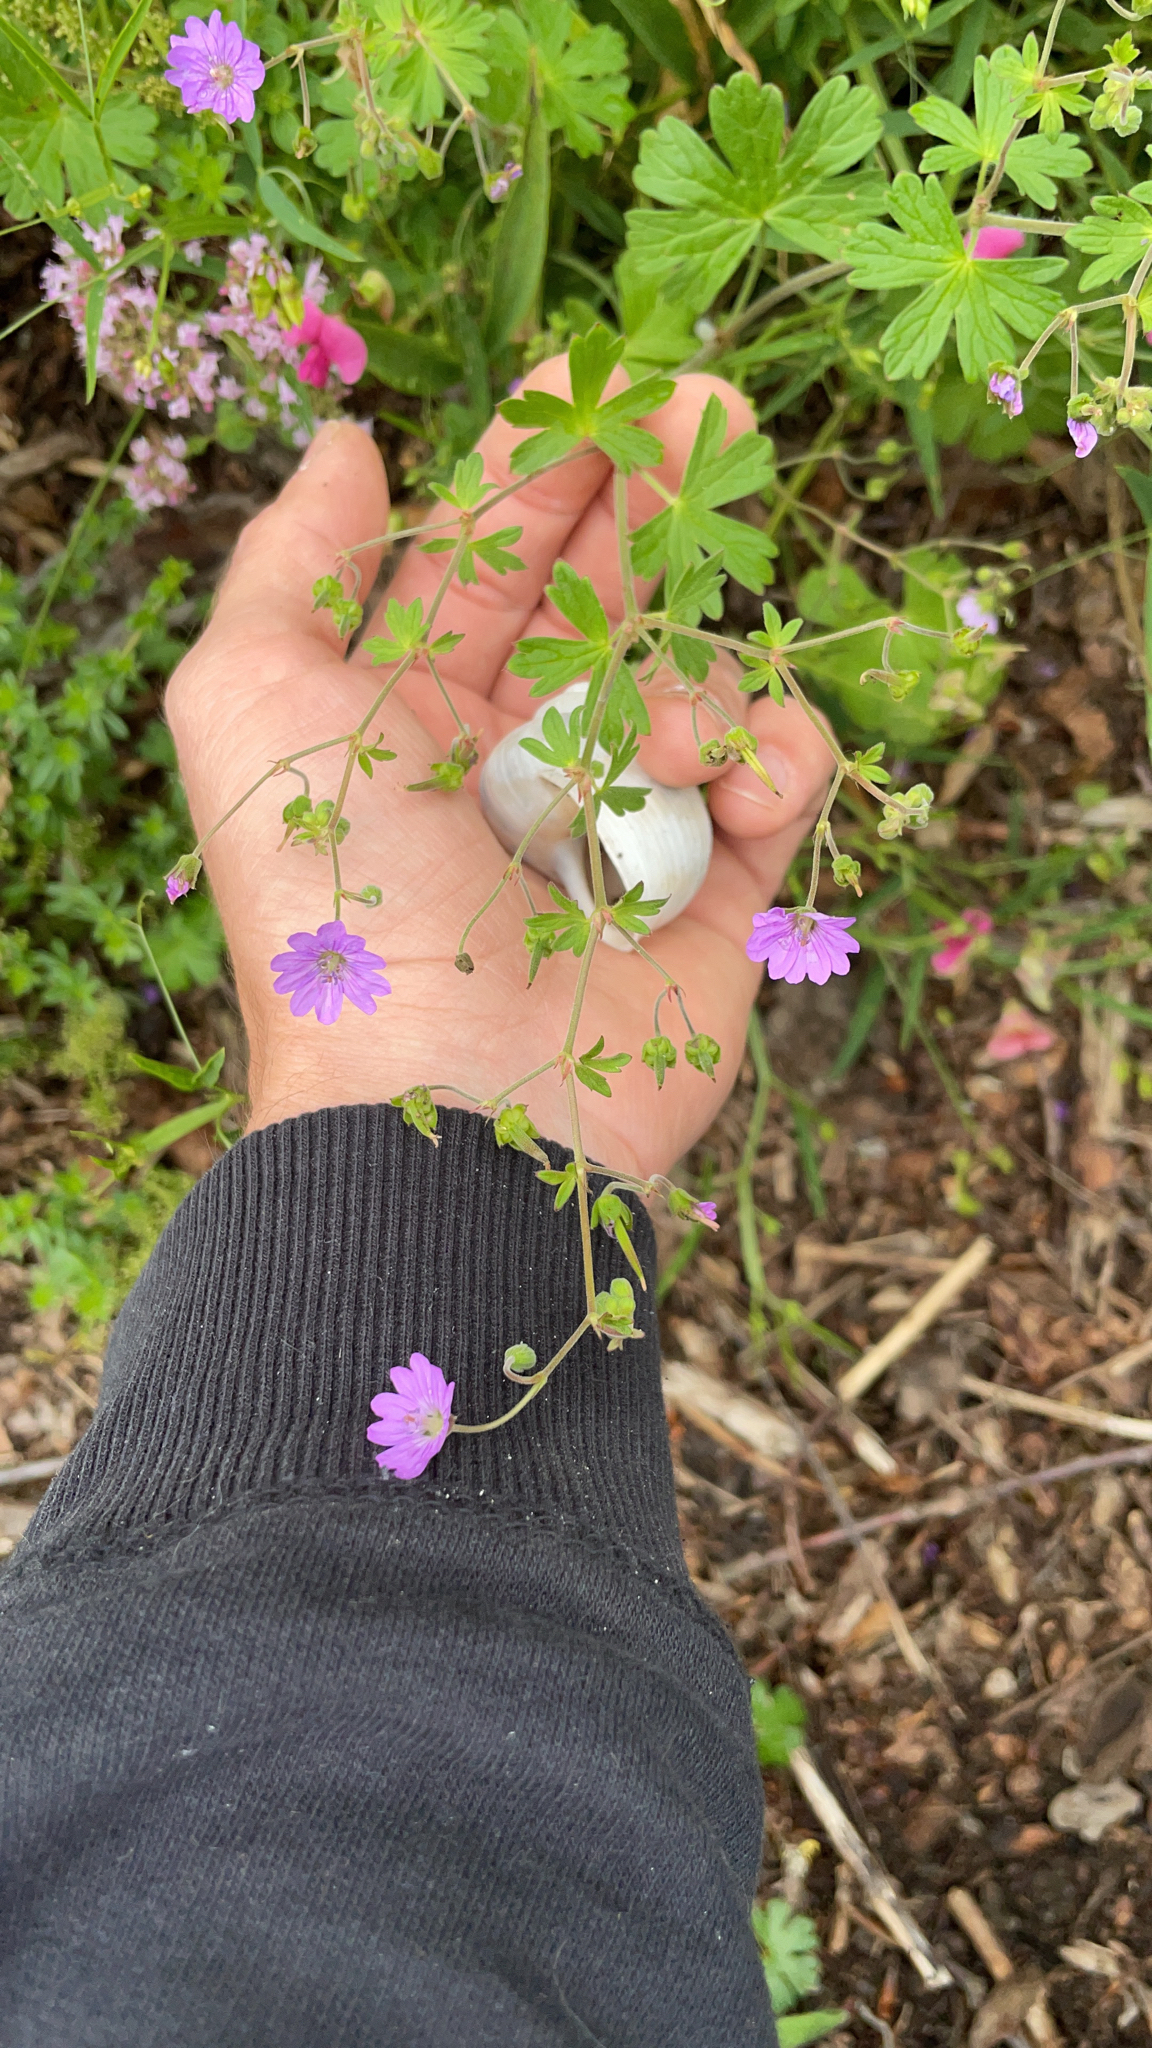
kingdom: Plantae
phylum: Tracheophyta
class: Magnoliopsida
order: Geraniales
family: Geraniaceae
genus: Geranium
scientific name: Geranium pyrenaicum
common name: Hedgerow crane's-bill
